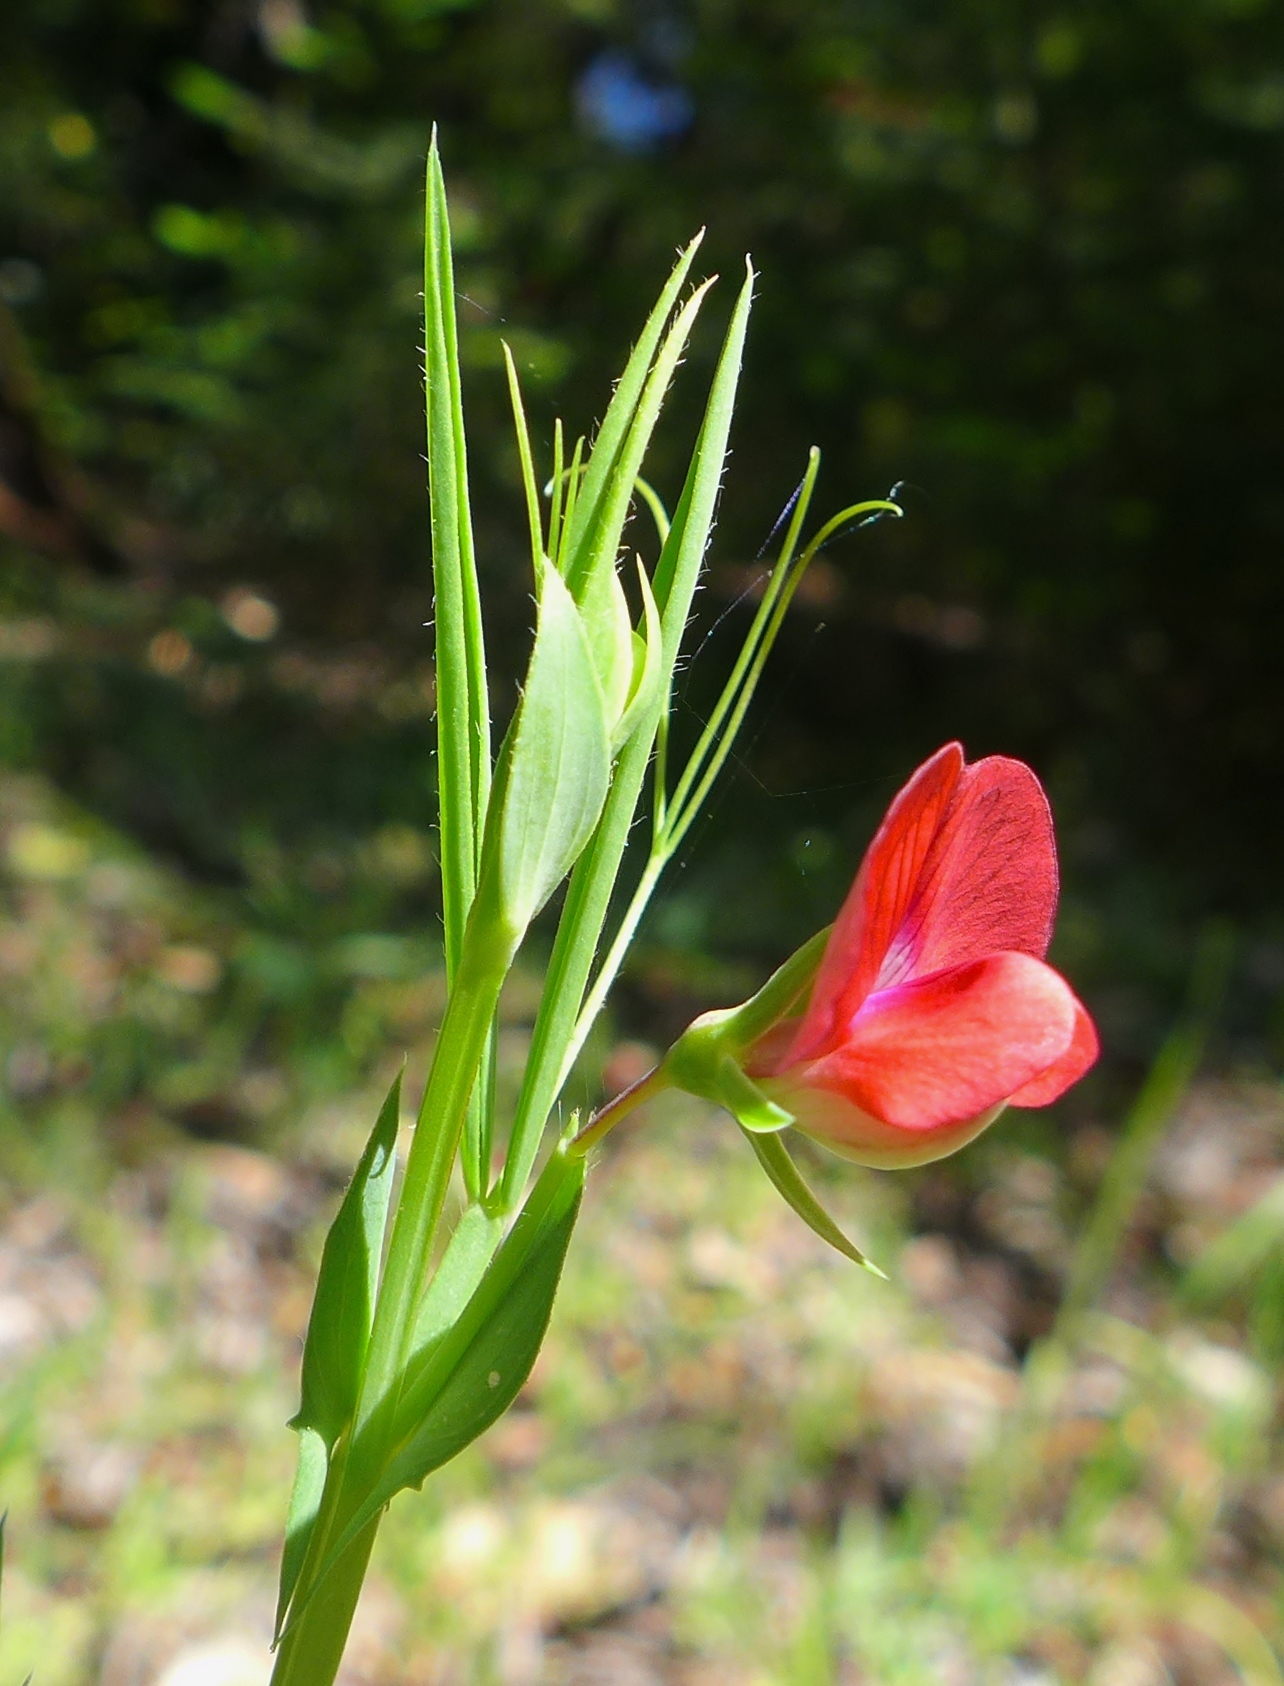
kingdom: Plantae
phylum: Tracheophyta
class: Magnoliopsida
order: Fabales
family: Fabaceae
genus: Lathyrus
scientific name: Lathyrus sphaericus
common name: Grass pea
